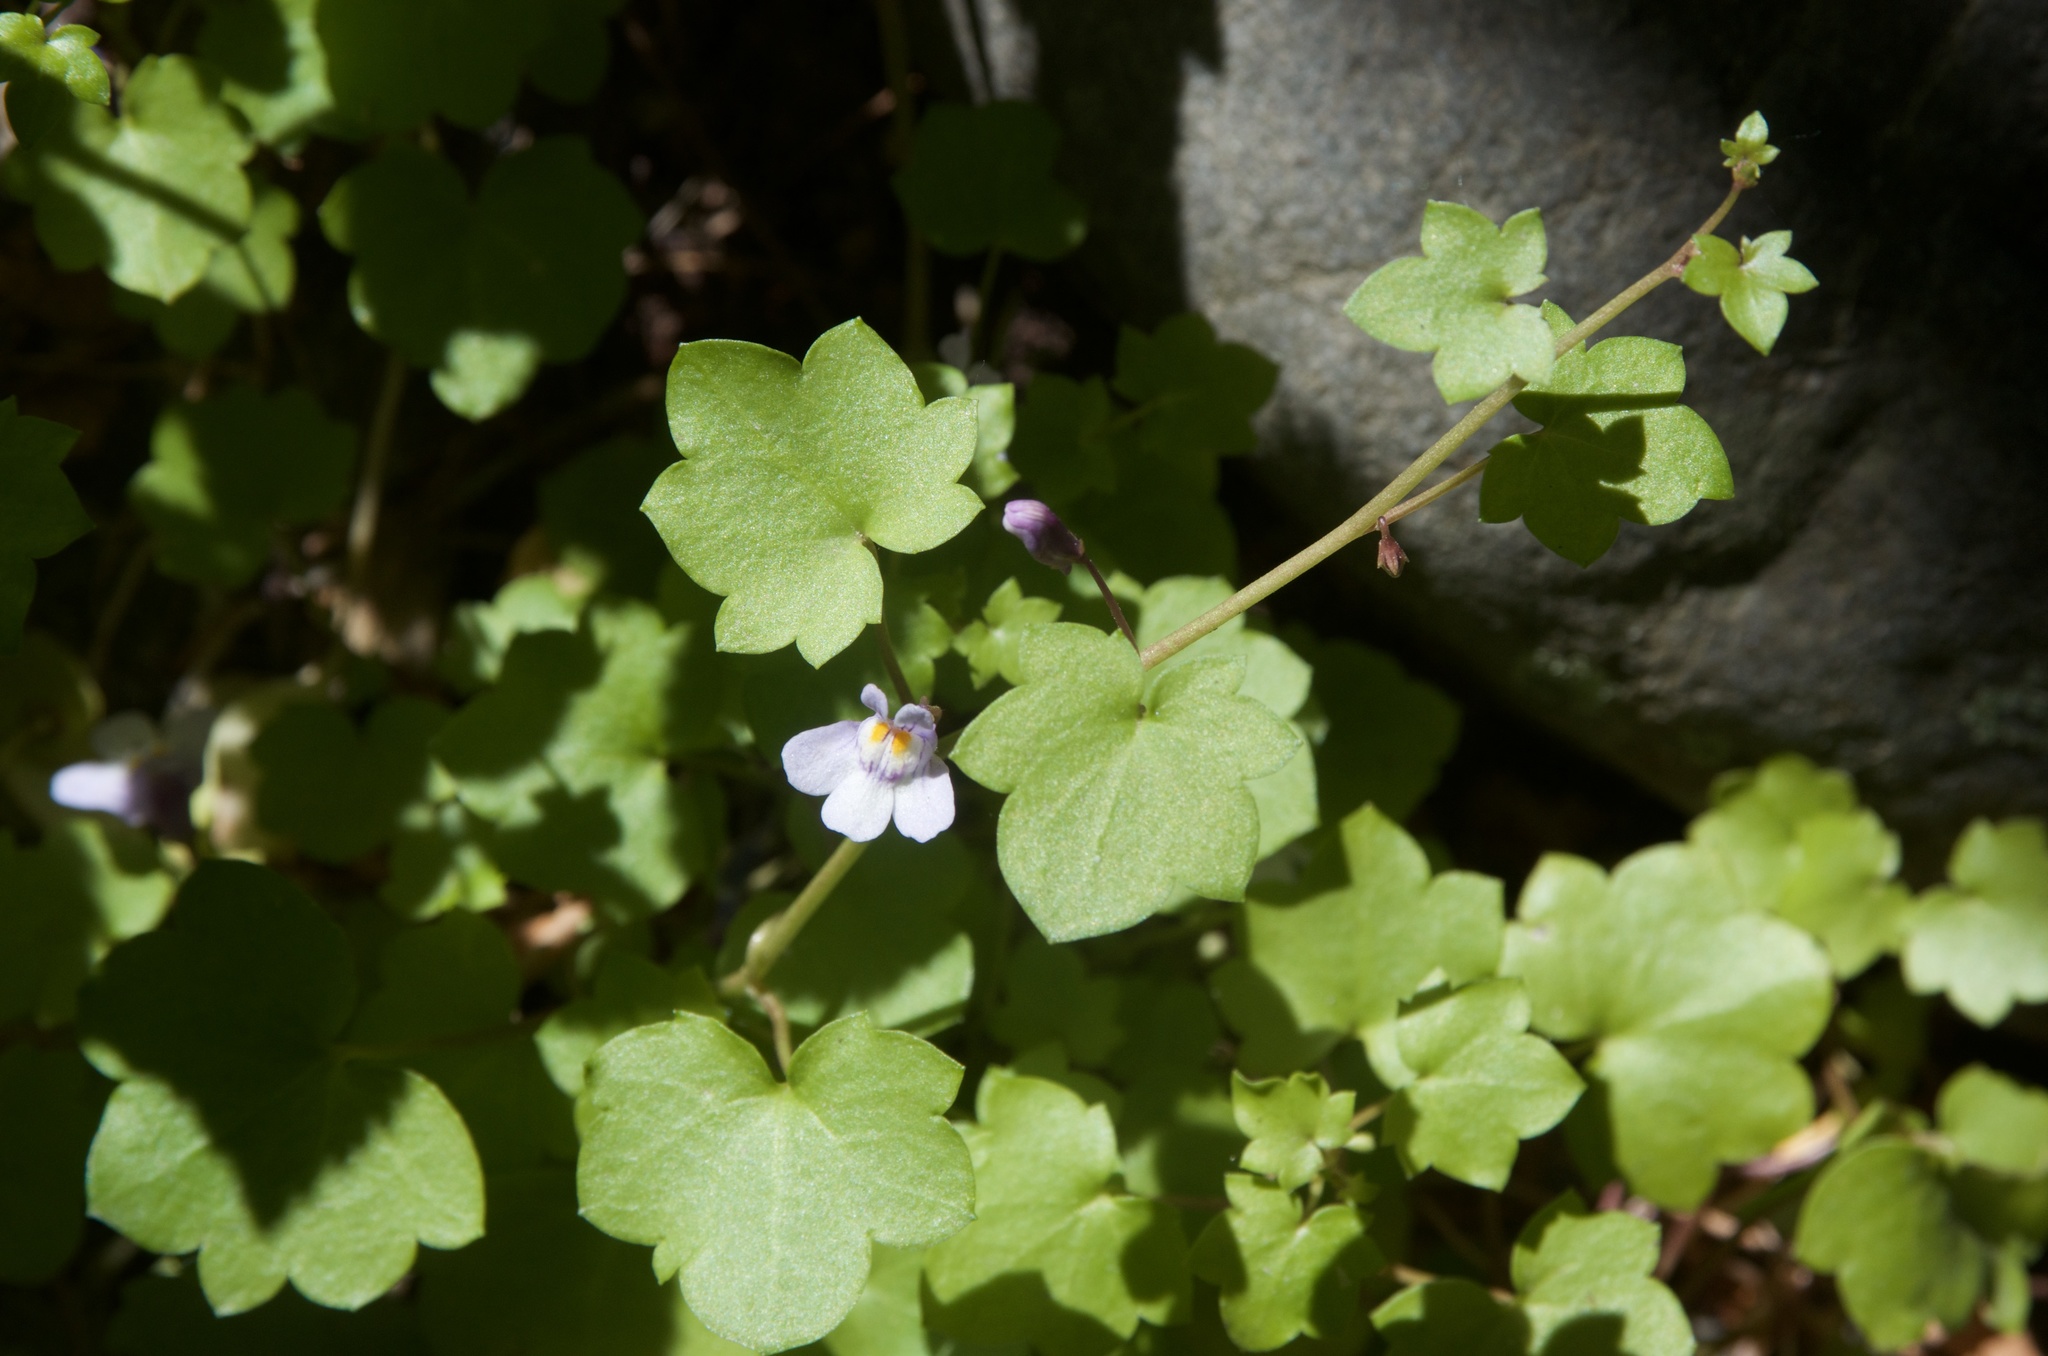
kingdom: Plantae
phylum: Tracheophyta
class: Magnoliopsida
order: Lamiales
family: Plantaginaceae
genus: Cymbalaria
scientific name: Cymbalaria muralis
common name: Ivy-leaved toadflax
